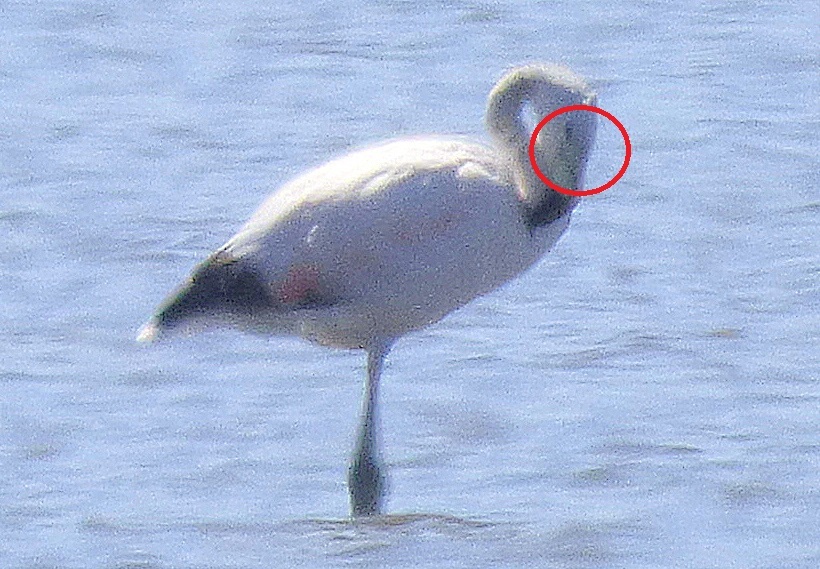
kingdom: Animalia
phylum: Chordata
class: Aves
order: Phoenicopteriformes
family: Phoenicopteridae
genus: Phoenicoparrus
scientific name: Phoenicoparrus andinus
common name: Andean flamingo
